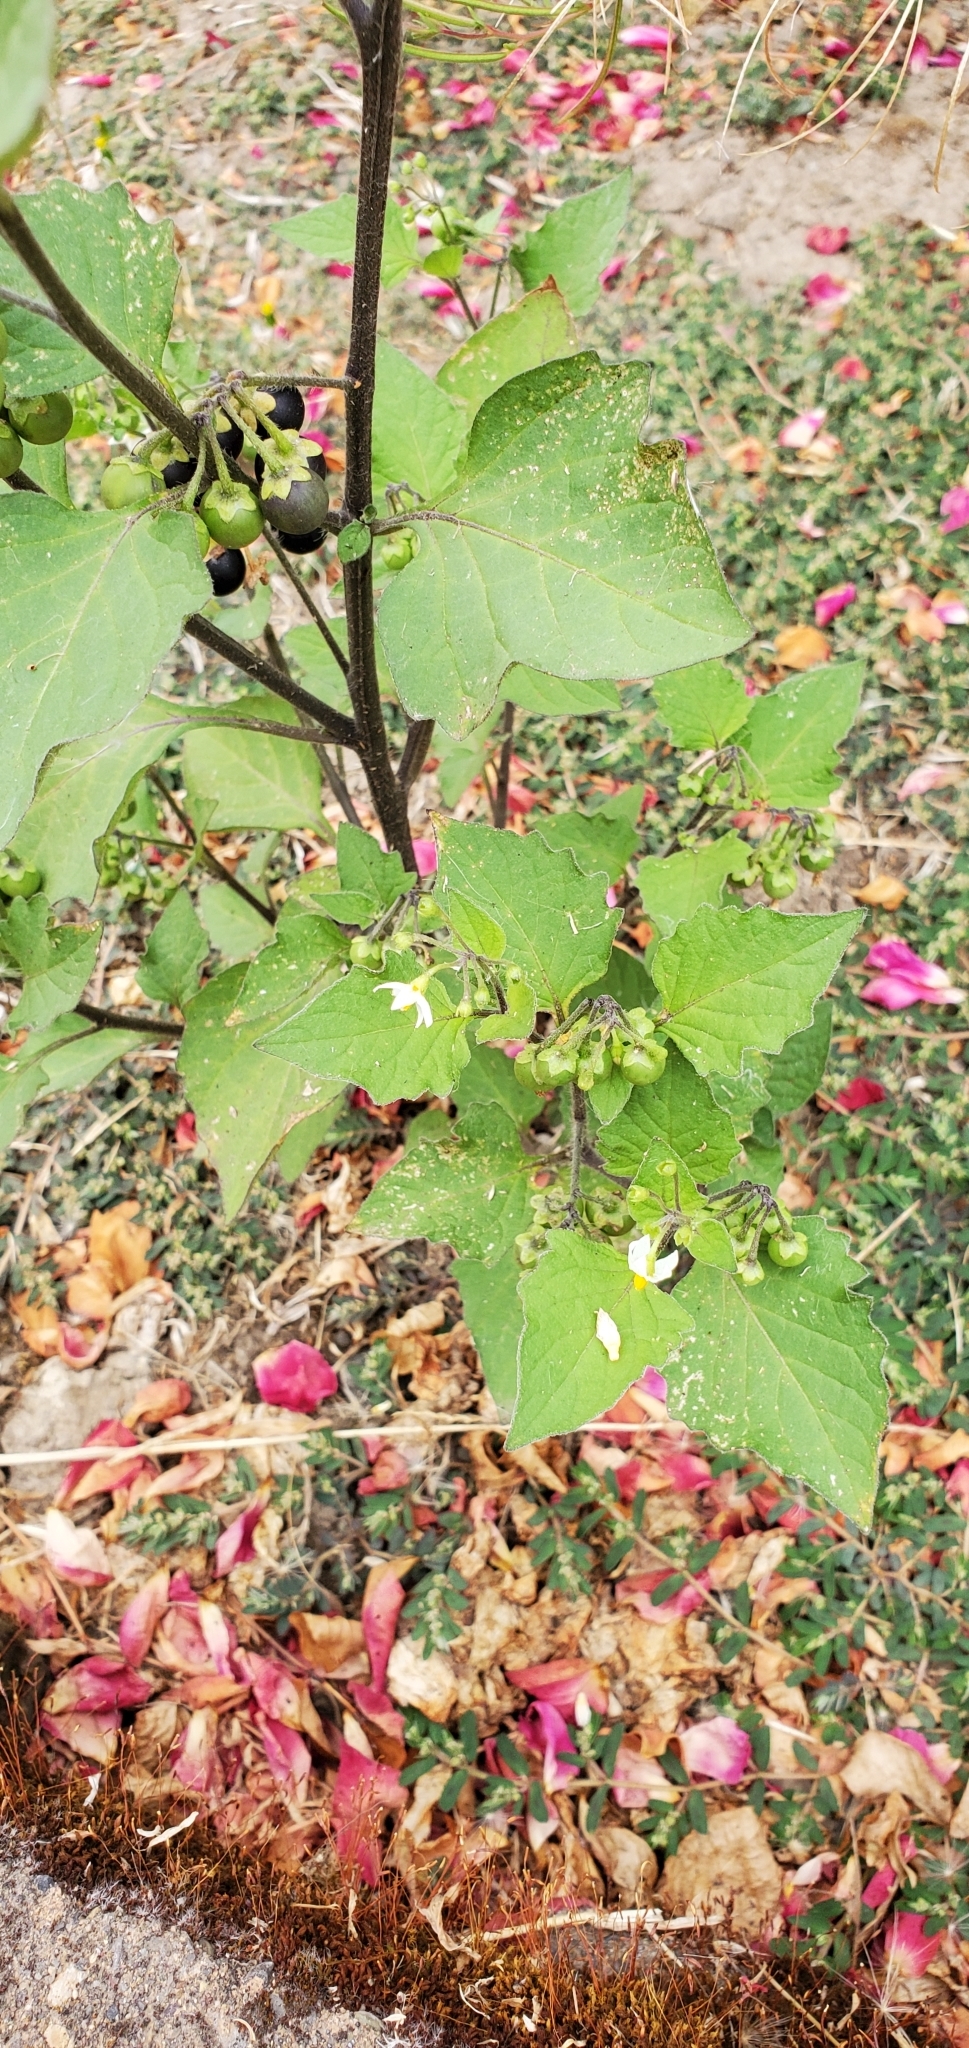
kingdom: Plantae
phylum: Tracheophyta
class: Magnoliopsida
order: Solanales
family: Solanaceae
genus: Solanum
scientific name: Solanum nigrum
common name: Black nightshade
